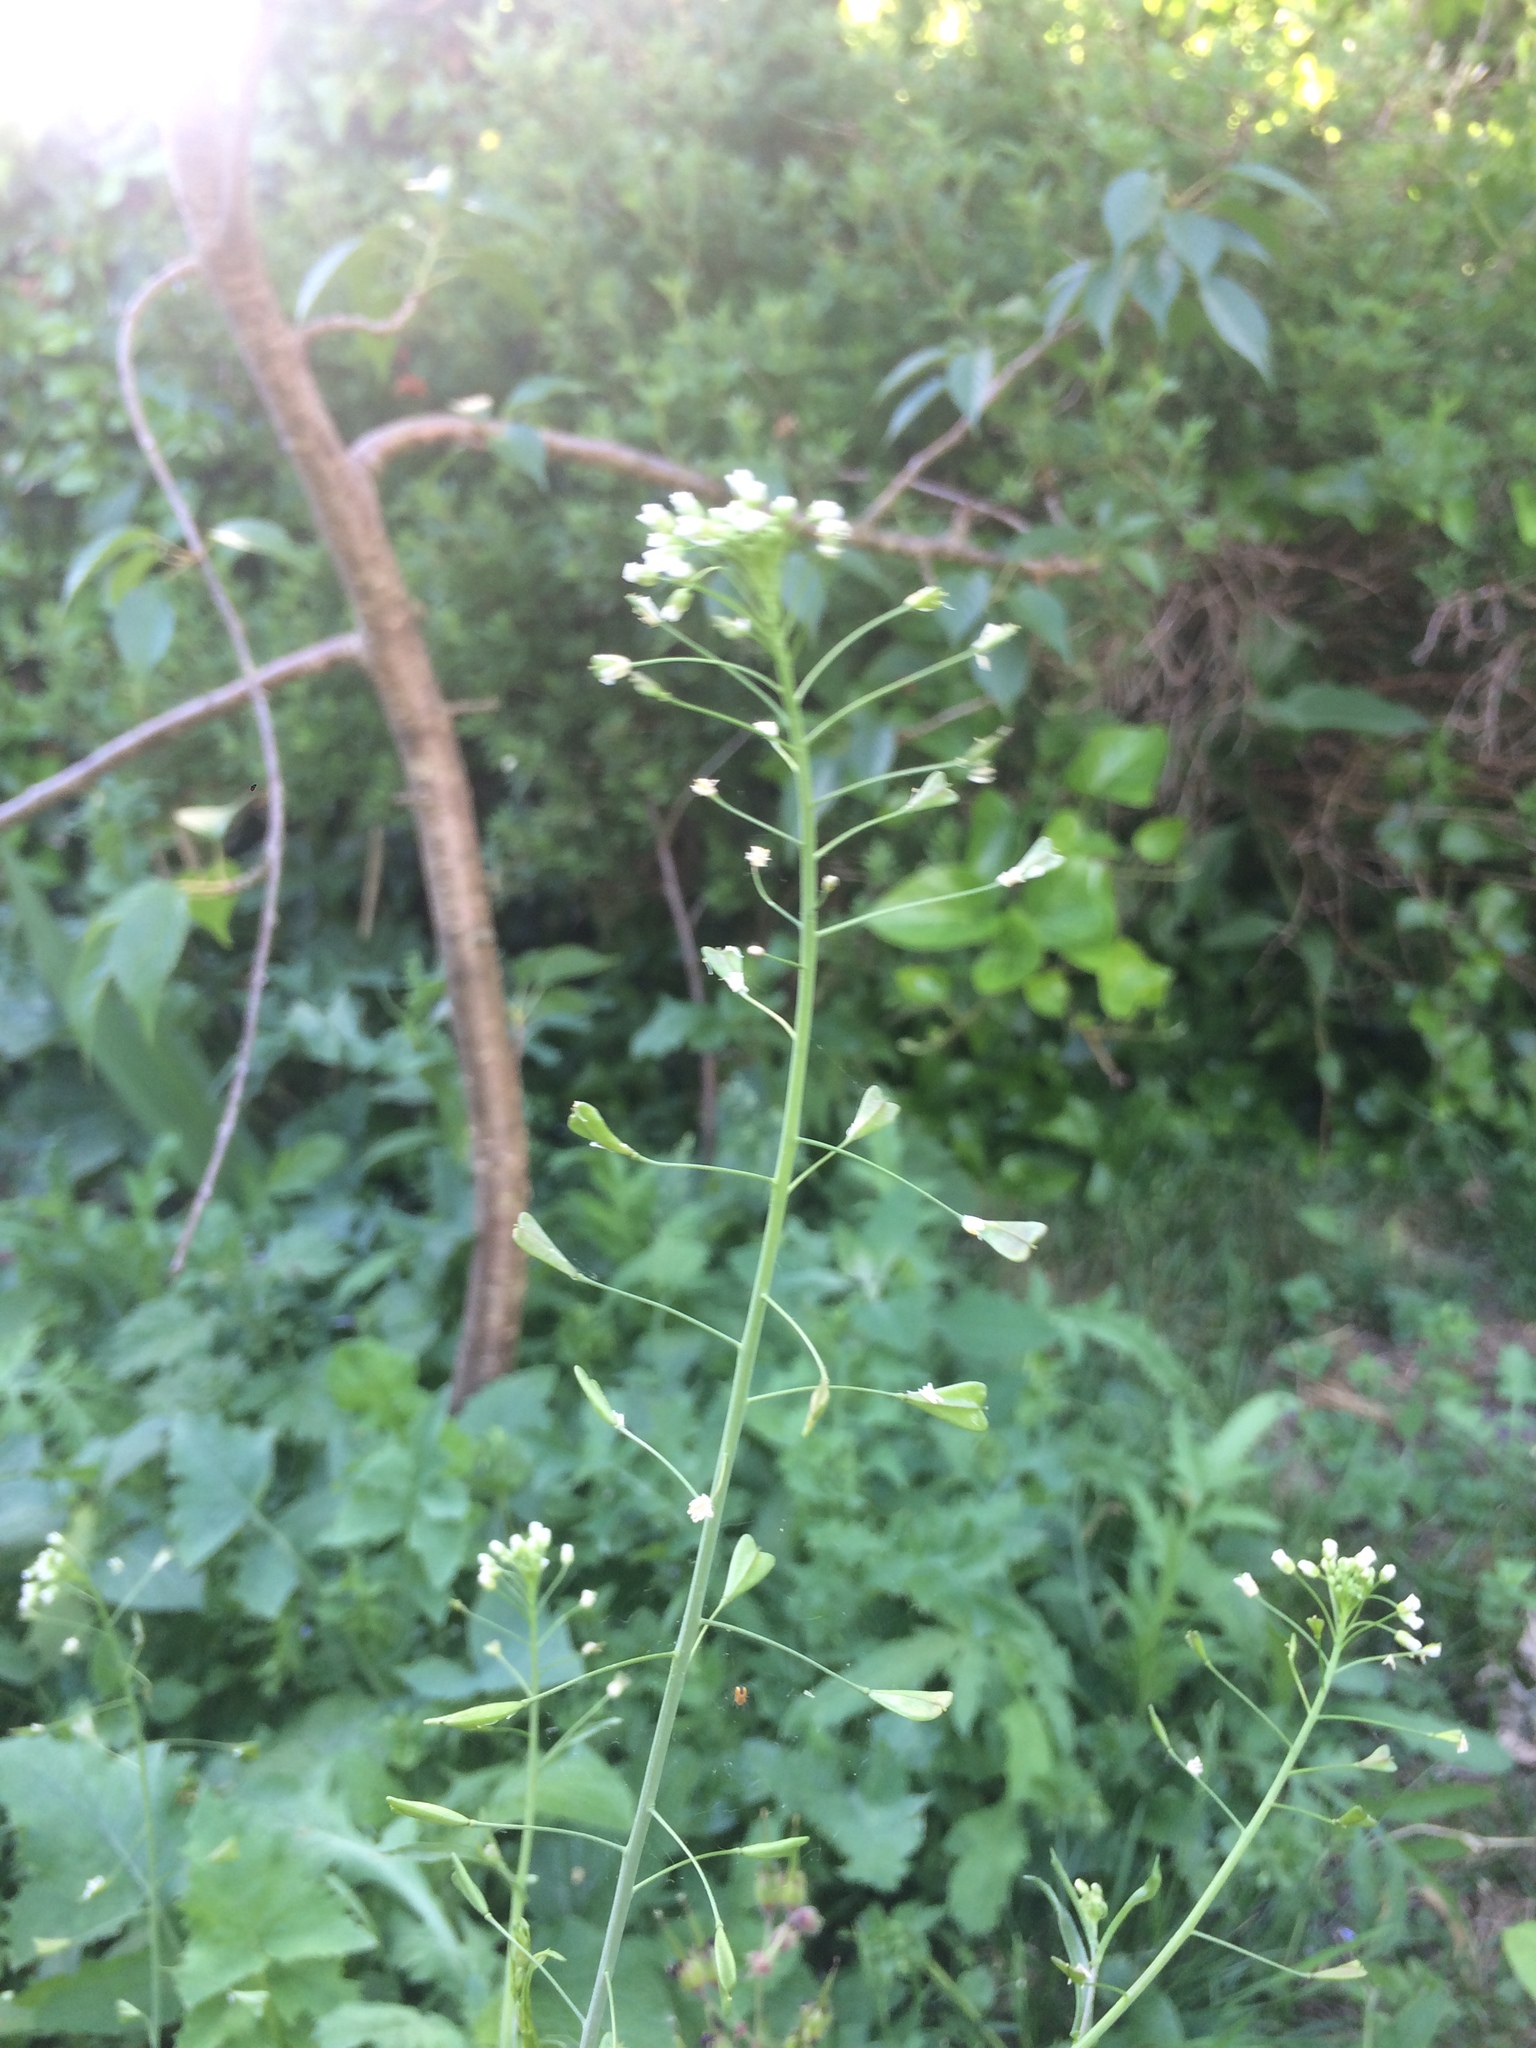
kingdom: Plantae
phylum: Tracheophyta
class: Magnoliopsida
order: Brassicales
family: Brassicaceae
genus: Capsella
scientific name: Capsella bursa-pastoris
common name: Shepherd's purse
